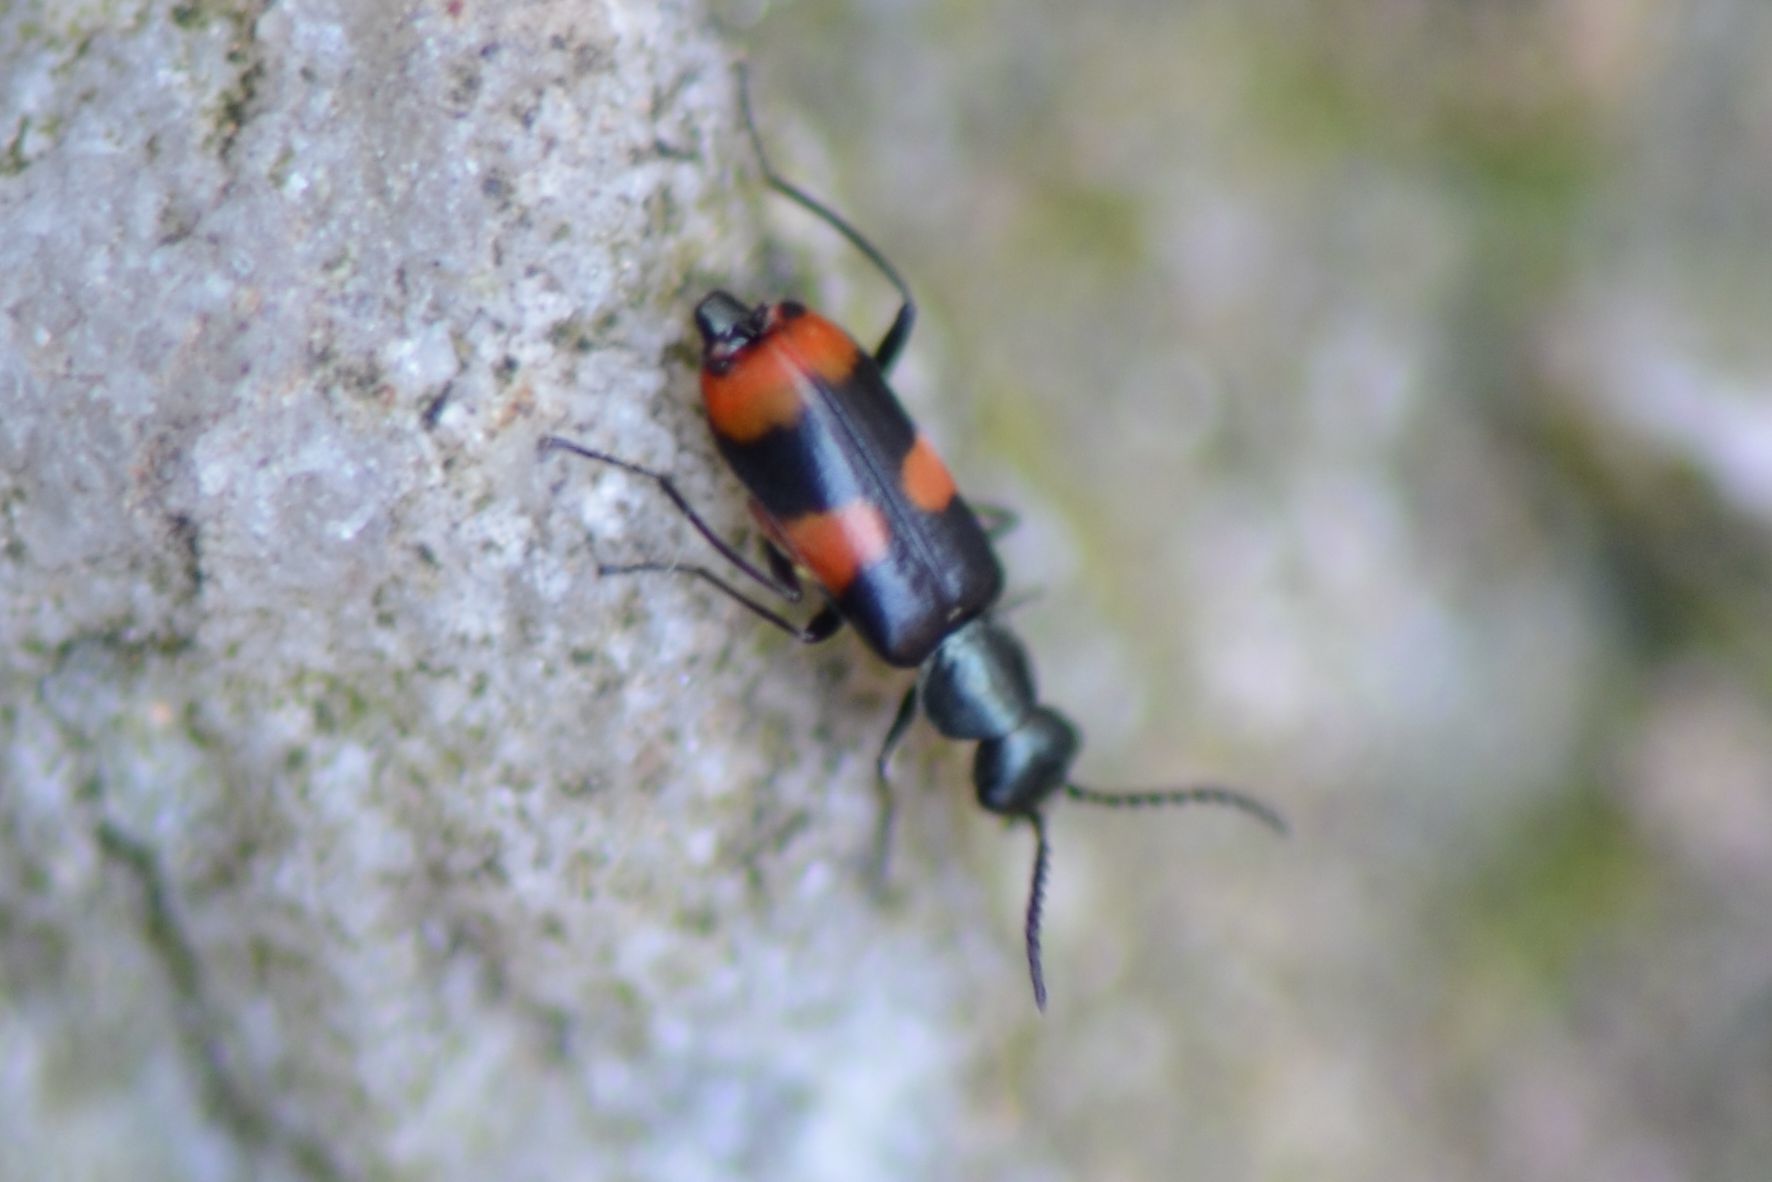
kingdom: Animalia
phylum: Arthropoda
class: Insecta
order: Coleoptera
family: Melyridae
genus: Anthocomus
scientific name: Anthocomus fasciatus
